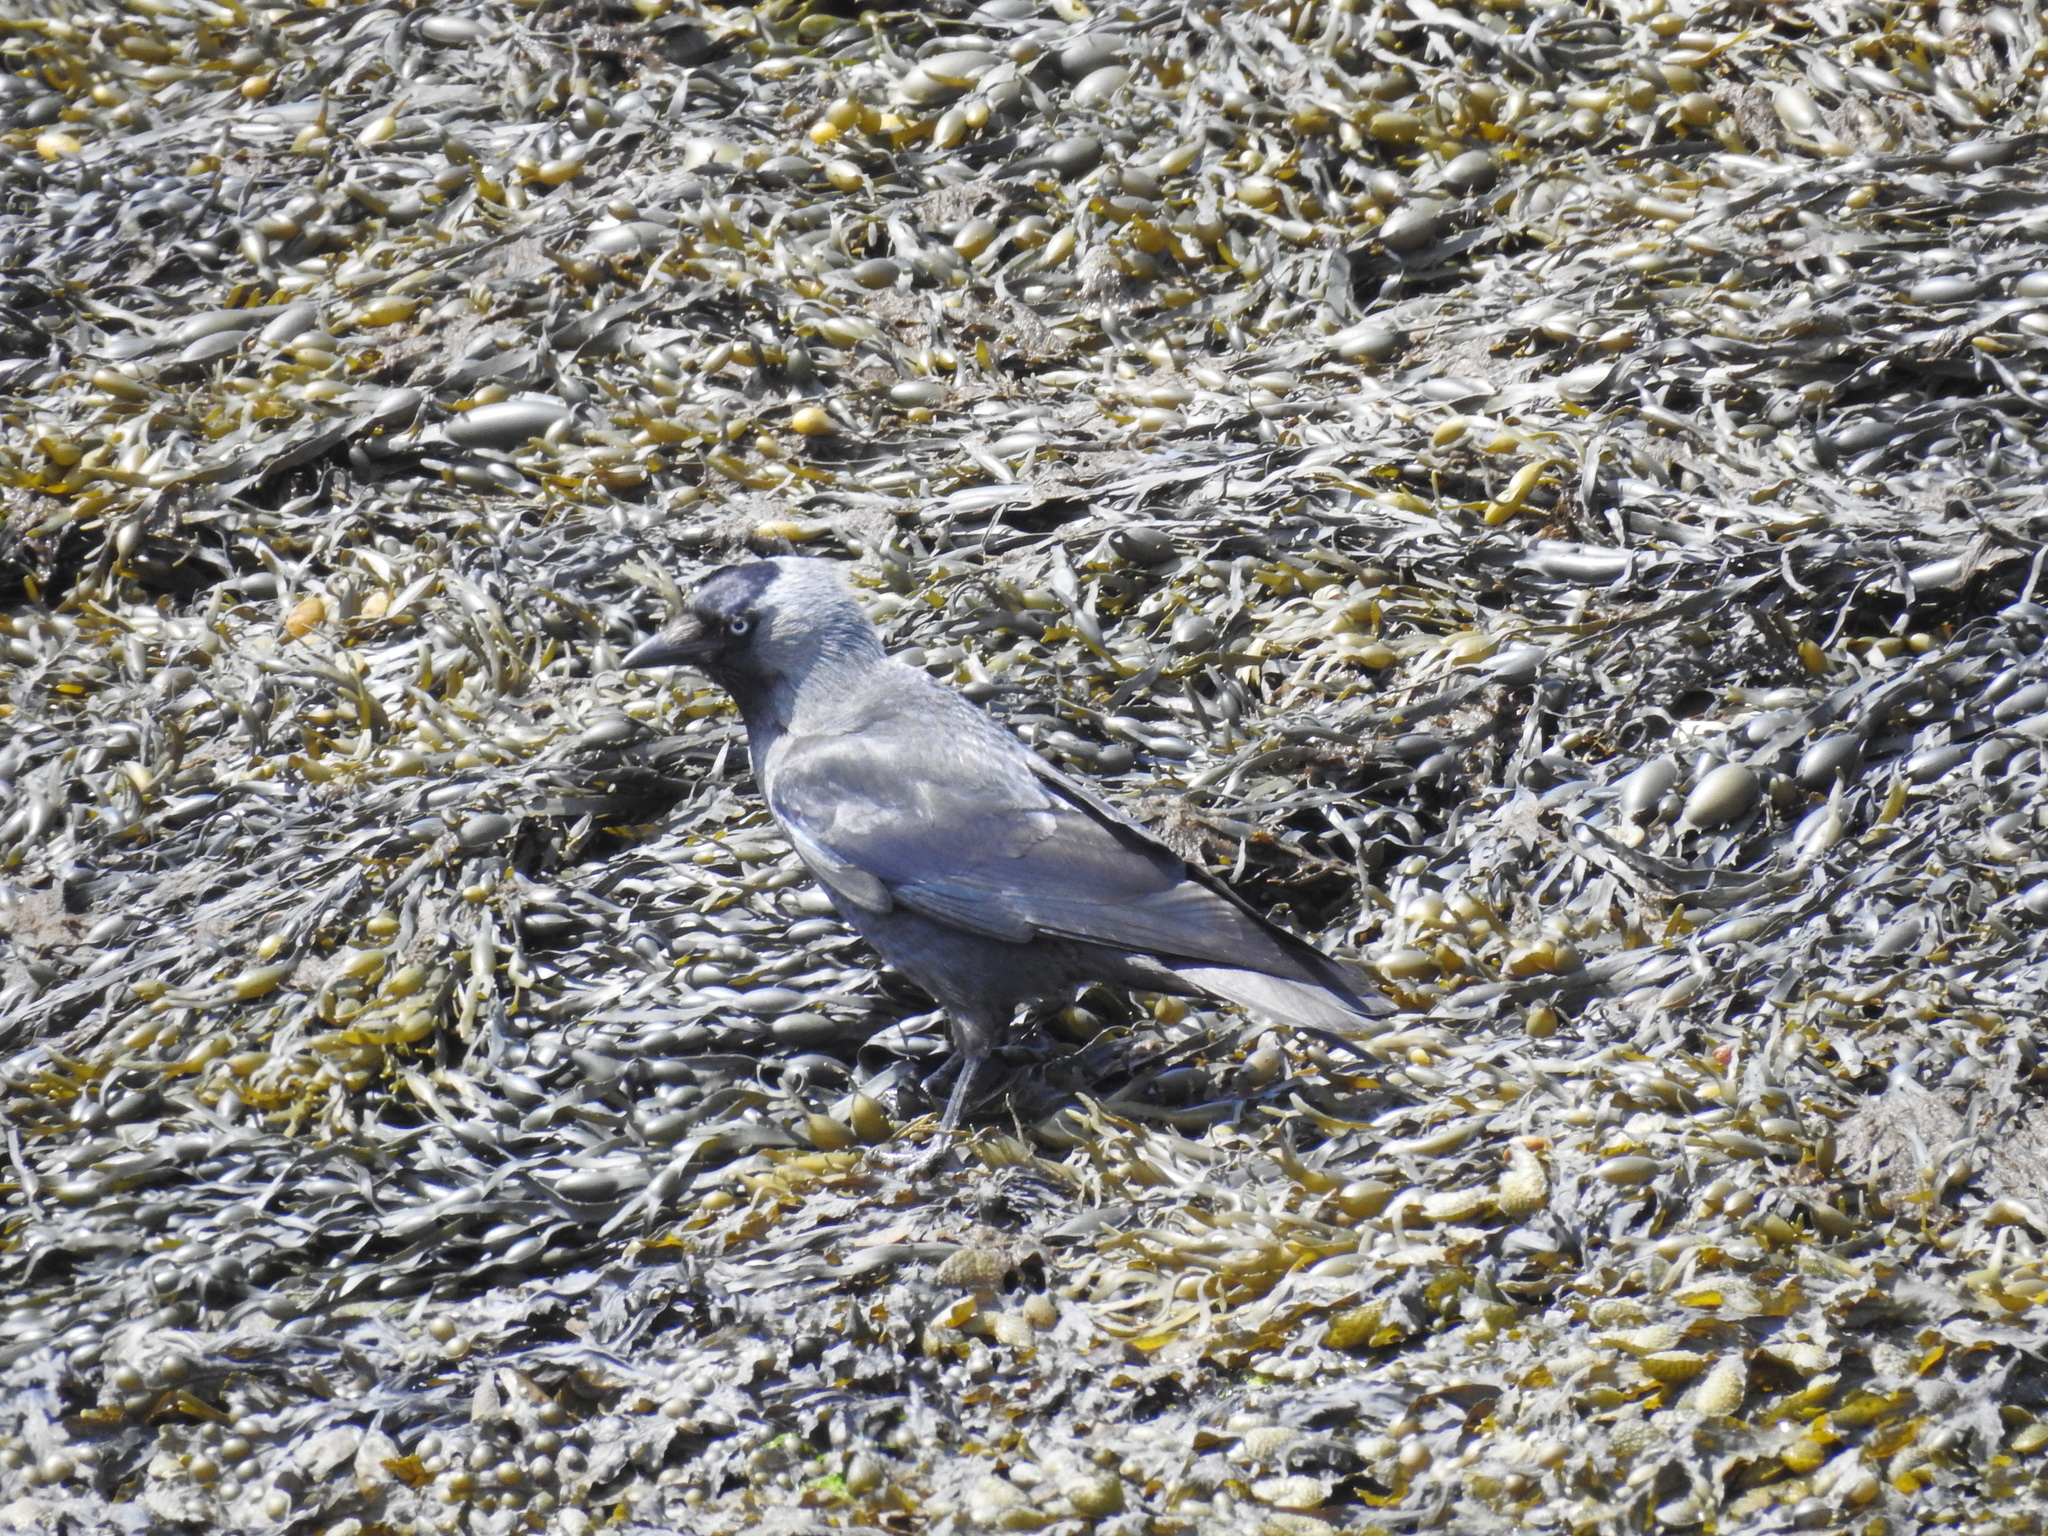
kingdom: Animalia
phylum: Chordata
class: Aves
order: Passeriformes
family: Corvidae
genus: Coloeus
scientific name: Coloeus monedula
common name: Western jackdaw
